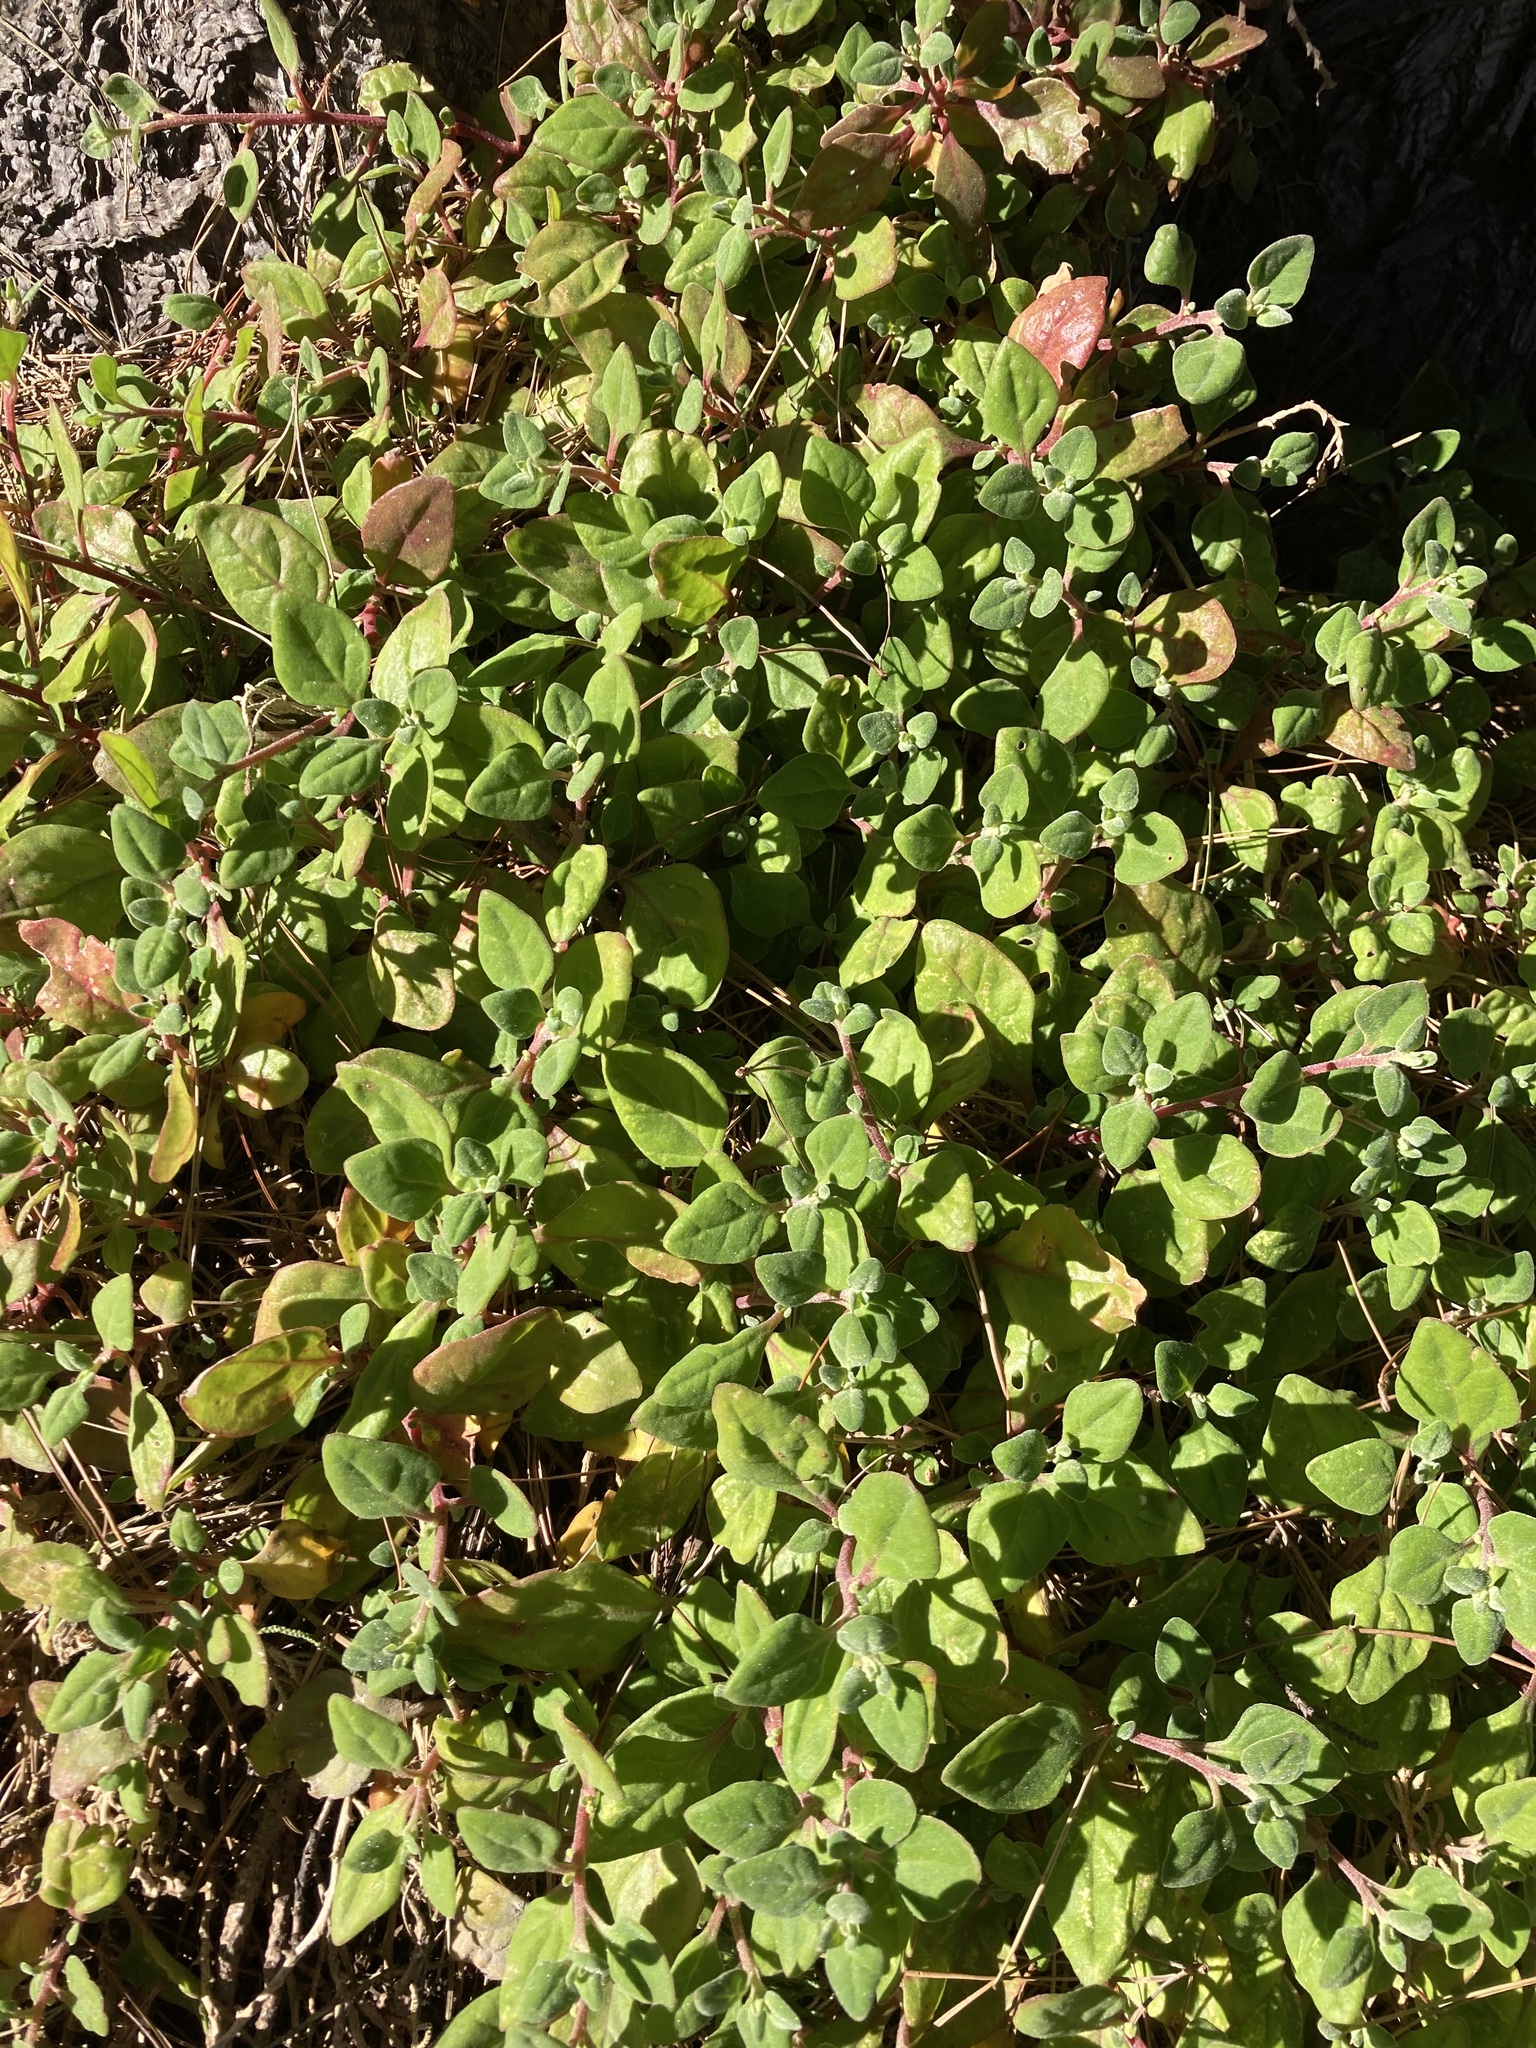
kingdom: Plantae
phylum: Tracheophyta
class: Magnoliopsida
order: Caryophyllales
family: Aizoaceae
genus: Tetragonia
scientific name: Tetragonia implexicoma
